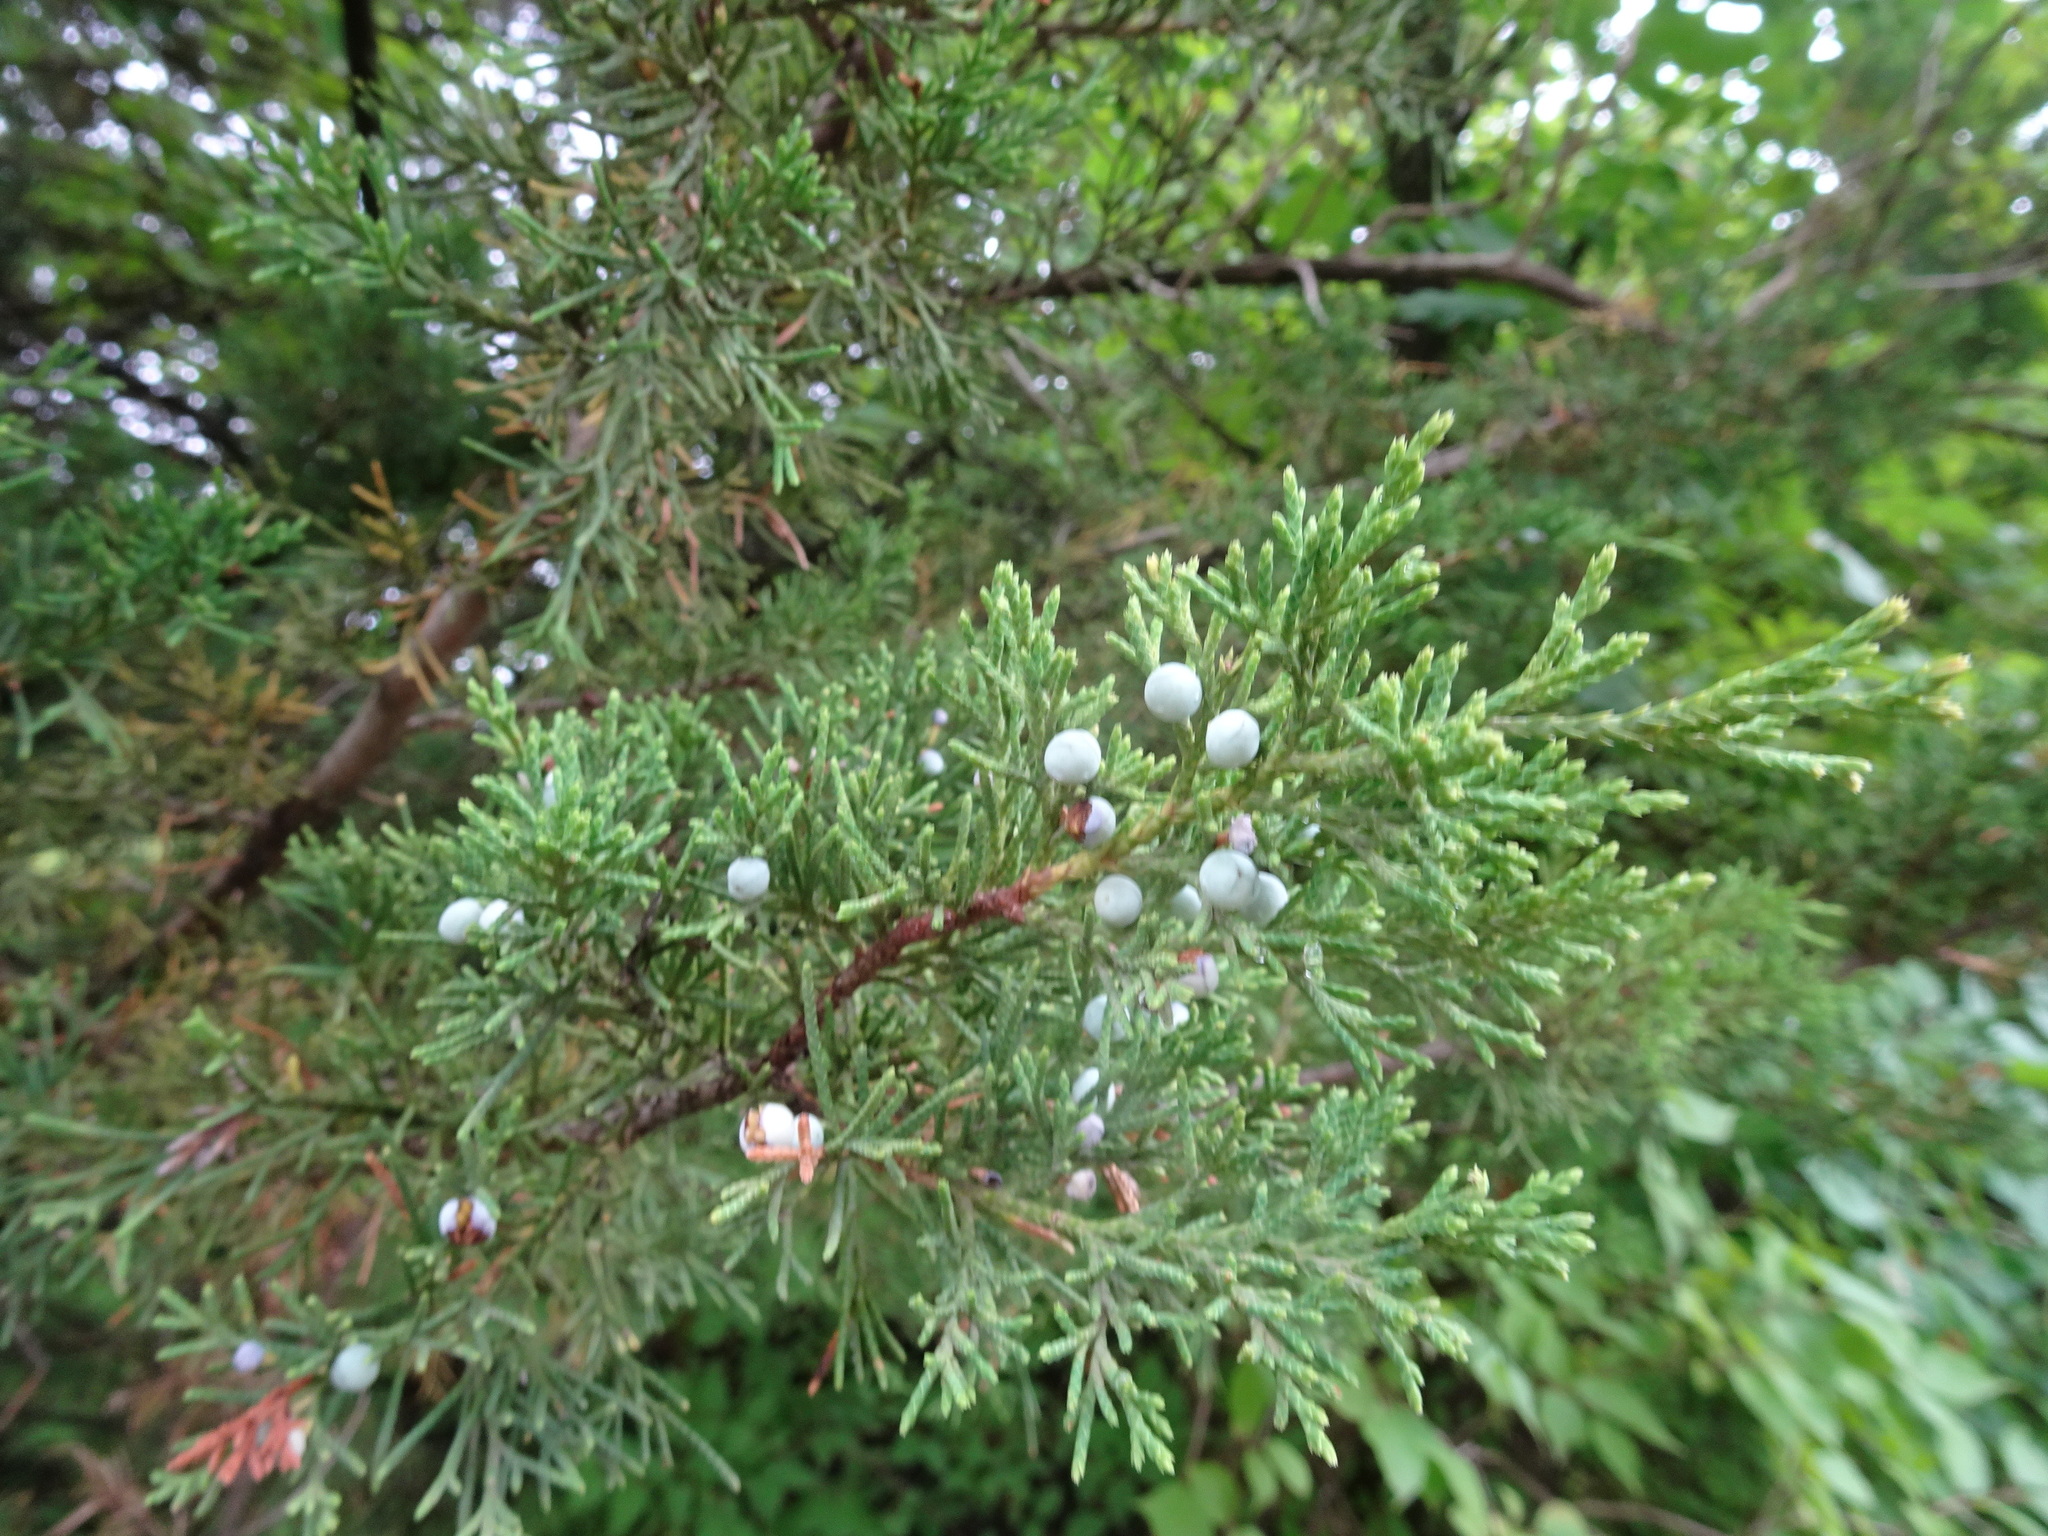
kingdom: Plantae
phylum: Tracheophyta
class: Pinopsida
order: Pinales
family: Cupressaceae
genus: Juniperus
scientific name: Juniperus virginiana
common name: Red juniper
